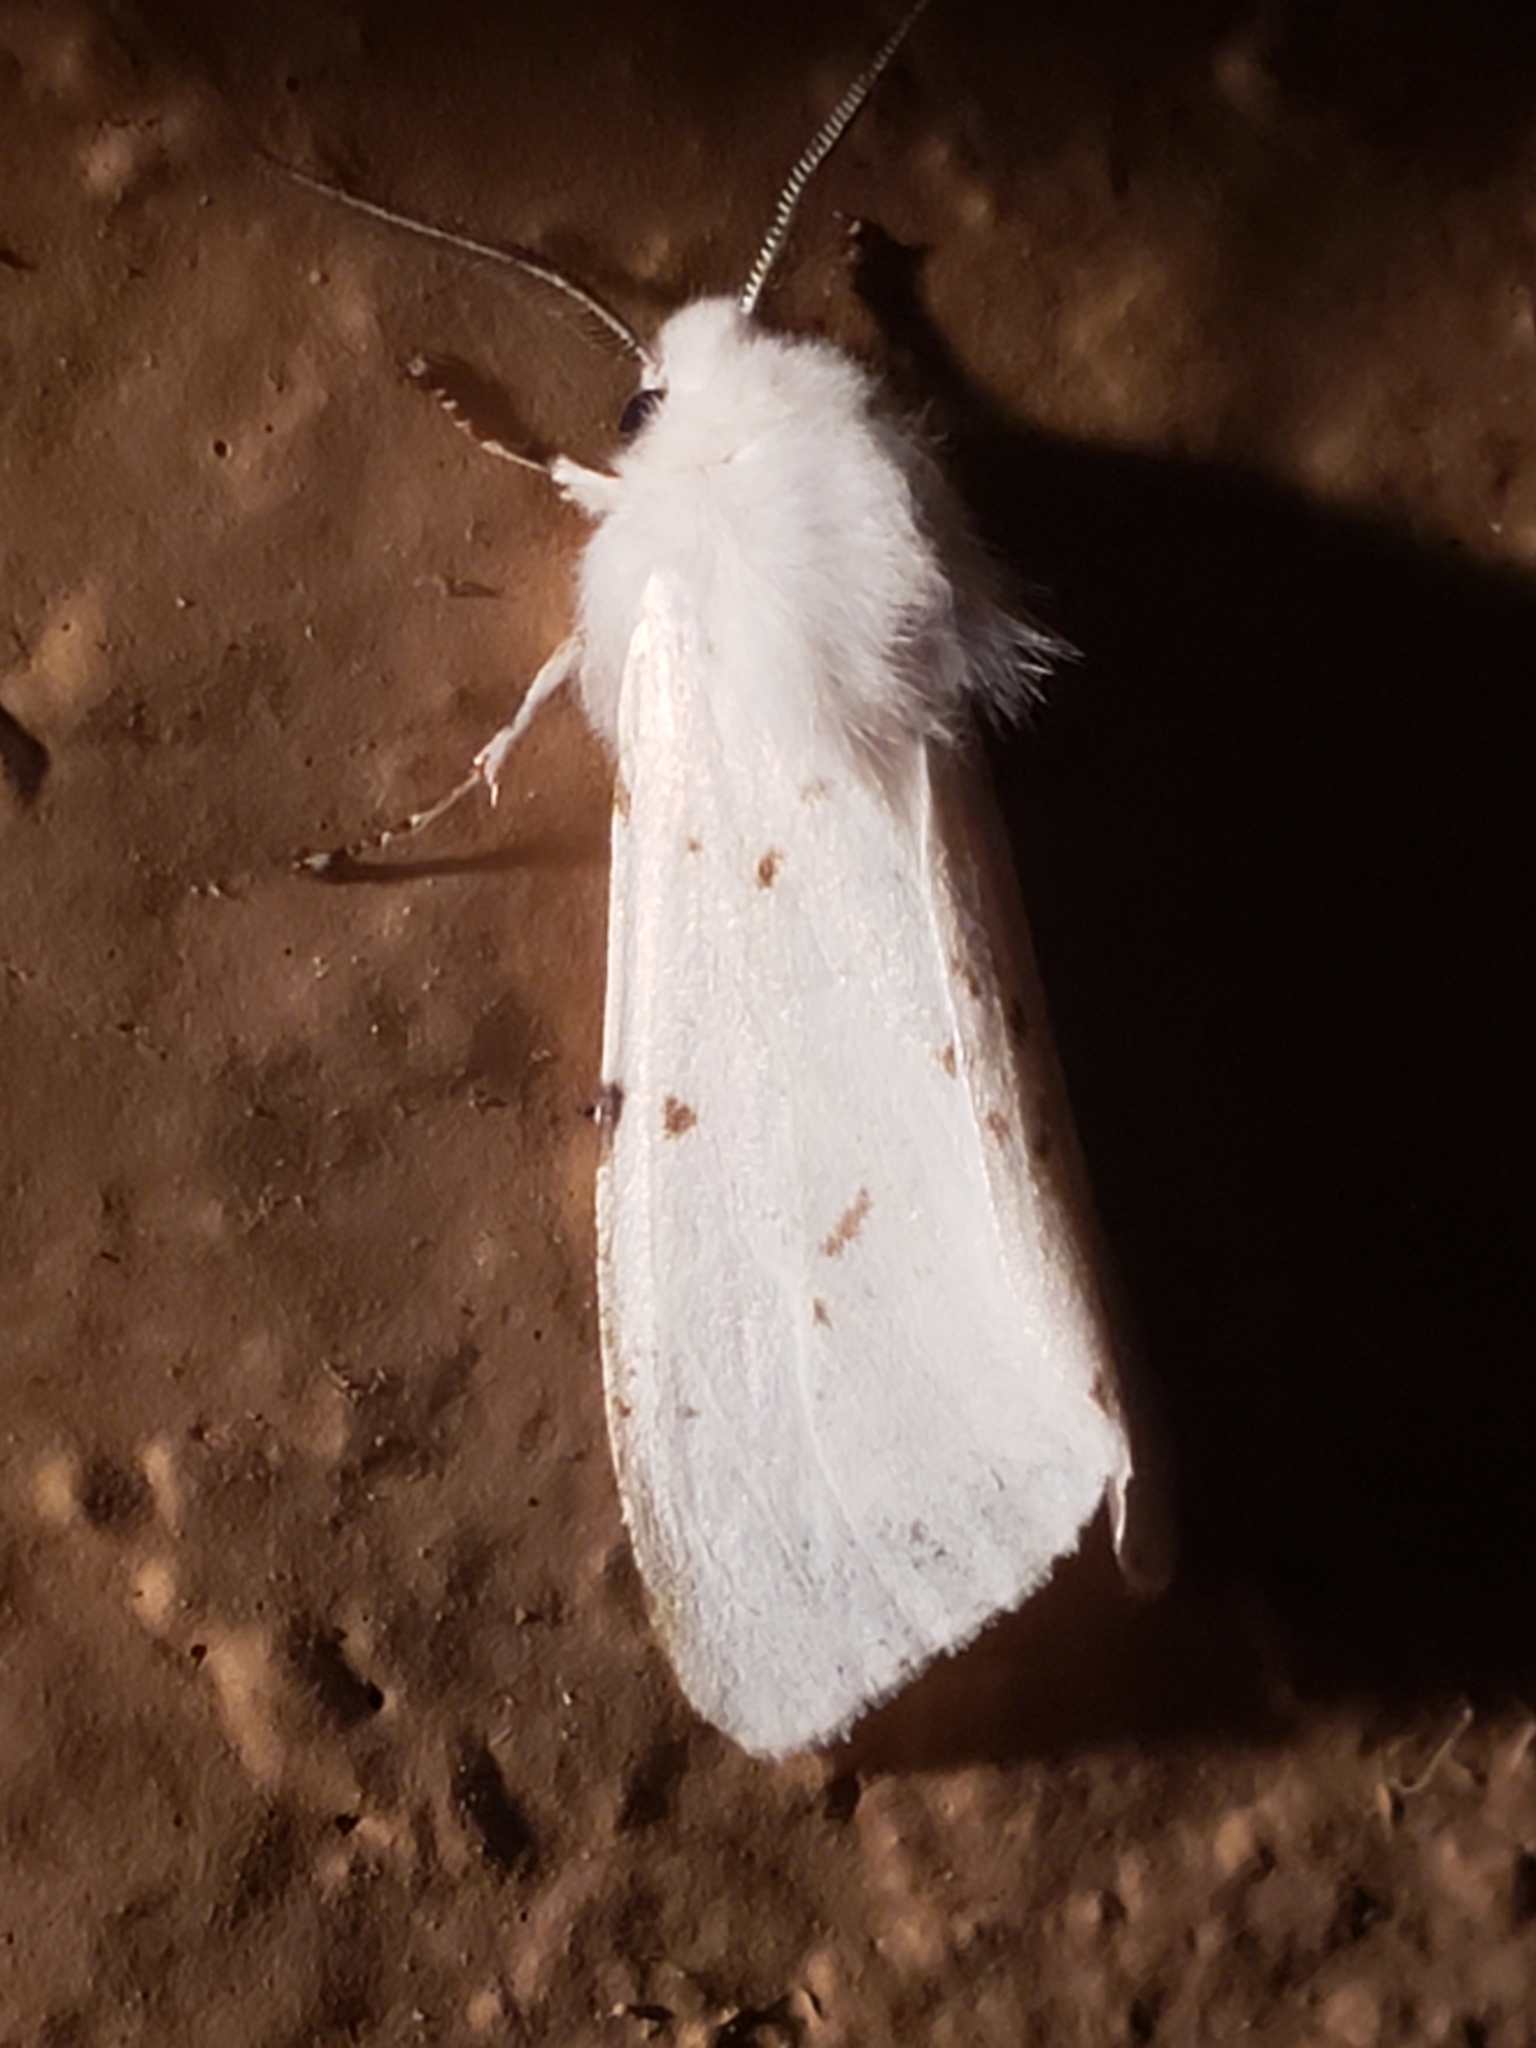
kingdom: Animalia
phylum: Arthropoda
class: Insecta
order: Lepidoptera
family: Erebidae
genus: Hyphantria
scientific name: Hyphantria cunea
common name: American white moth
